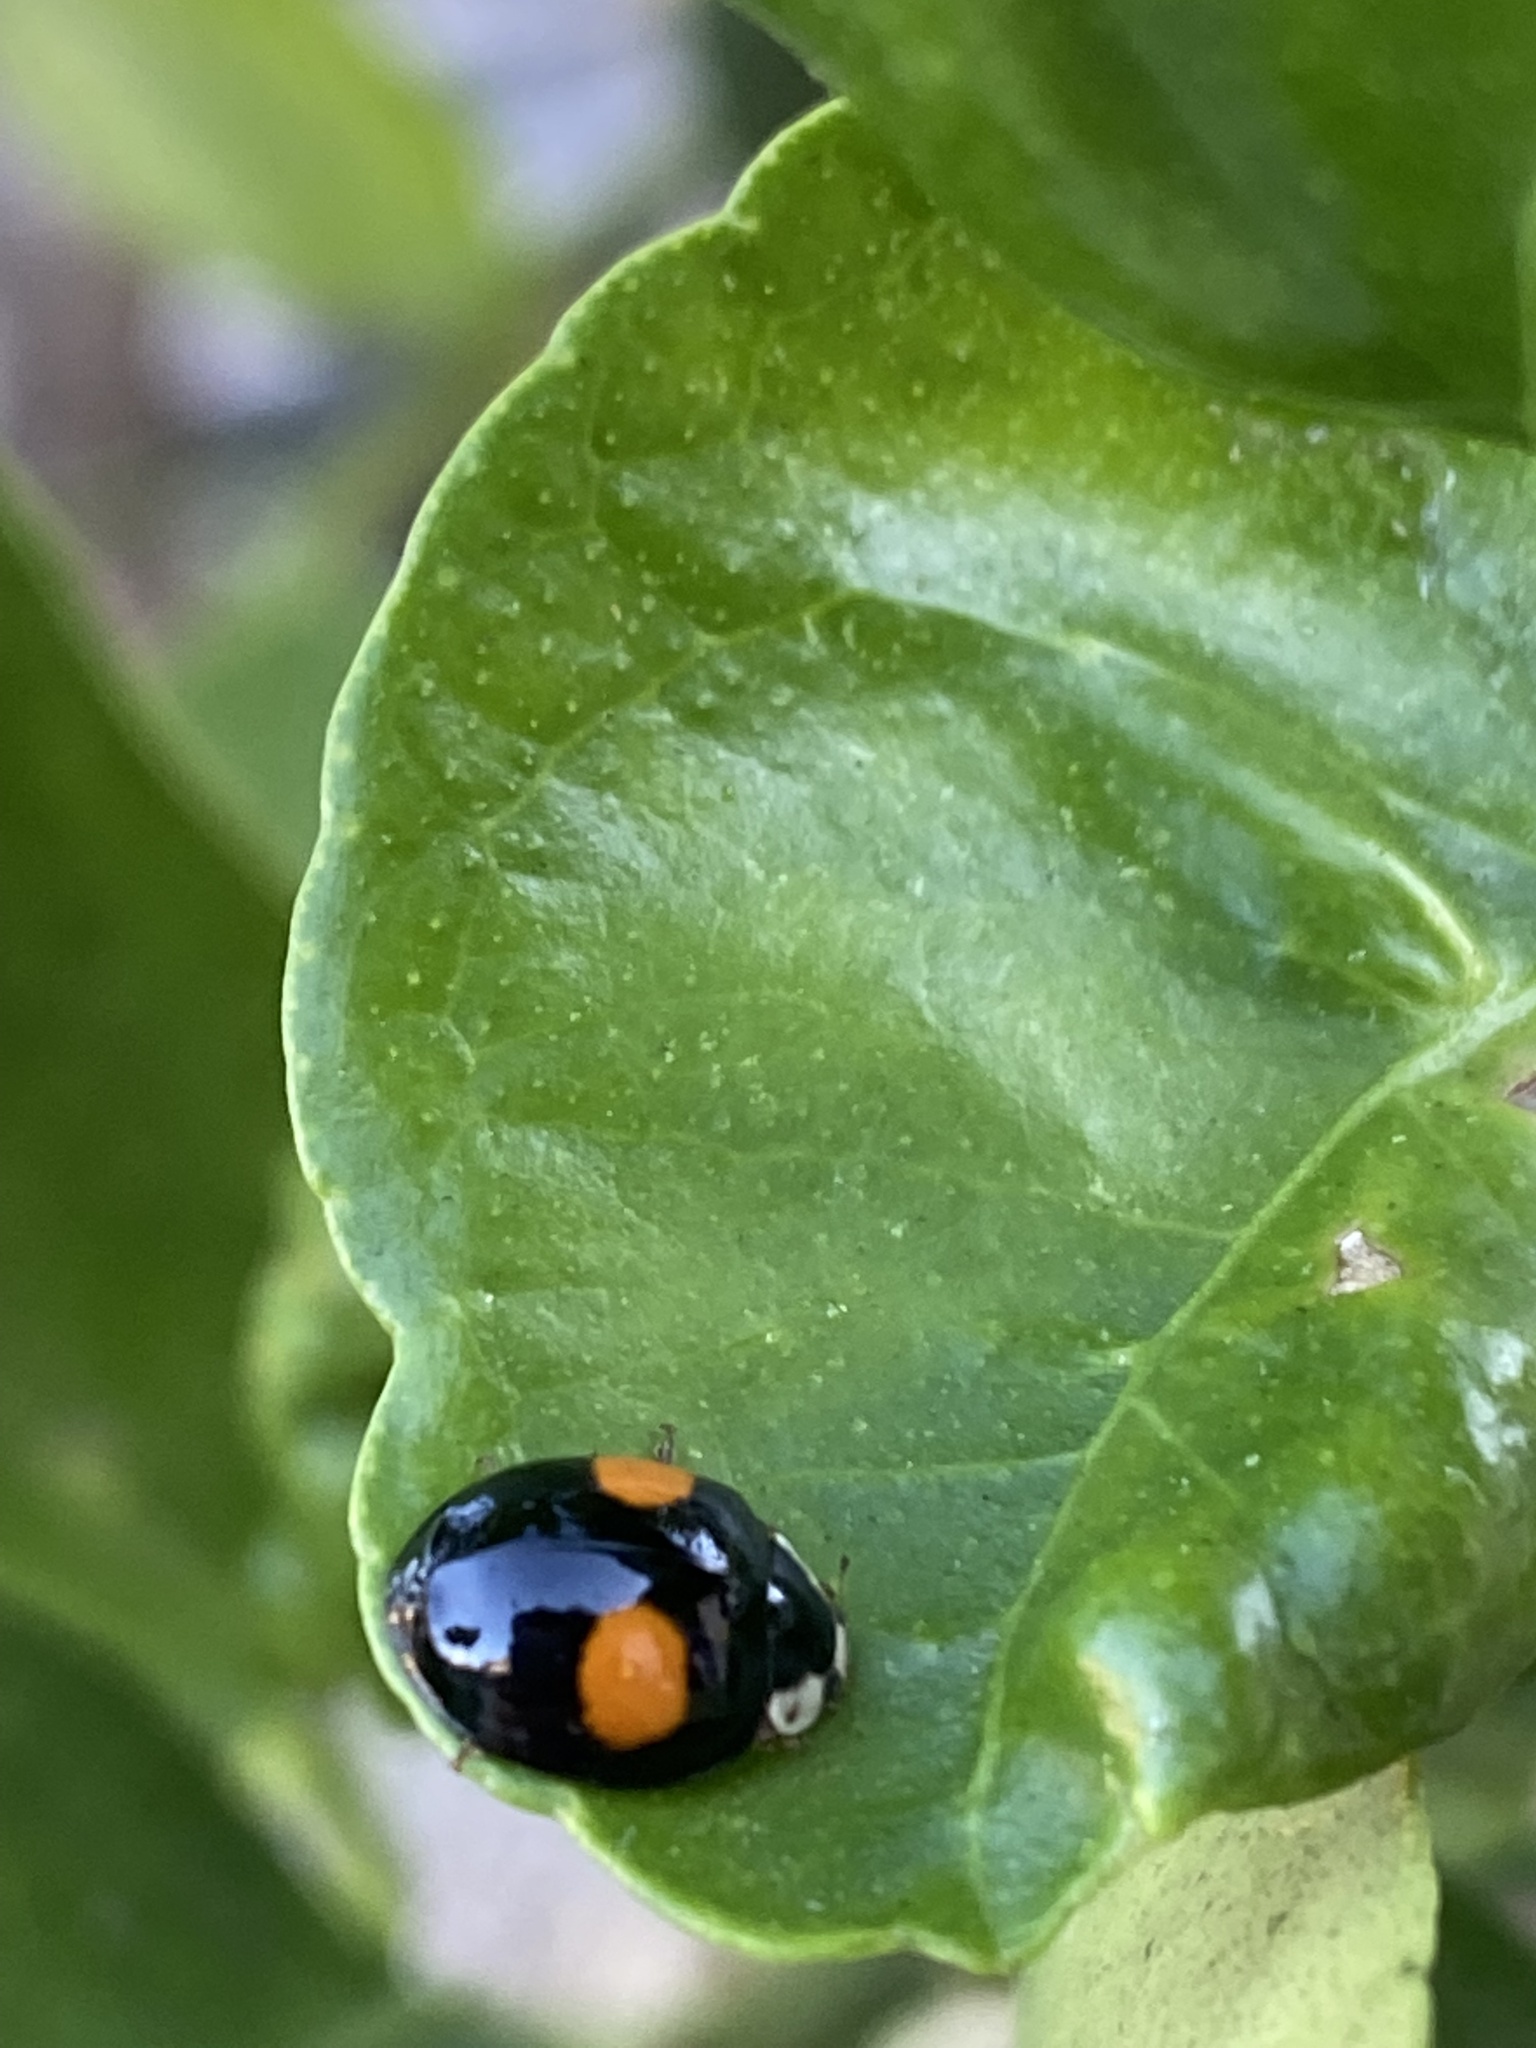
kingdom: Animalia
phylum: Arthropoda
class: Insecta
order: Coleoptera
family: Coccinellidae
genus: Harmonia
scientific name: Harmonia axyridis
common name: Harlequin ladybird
